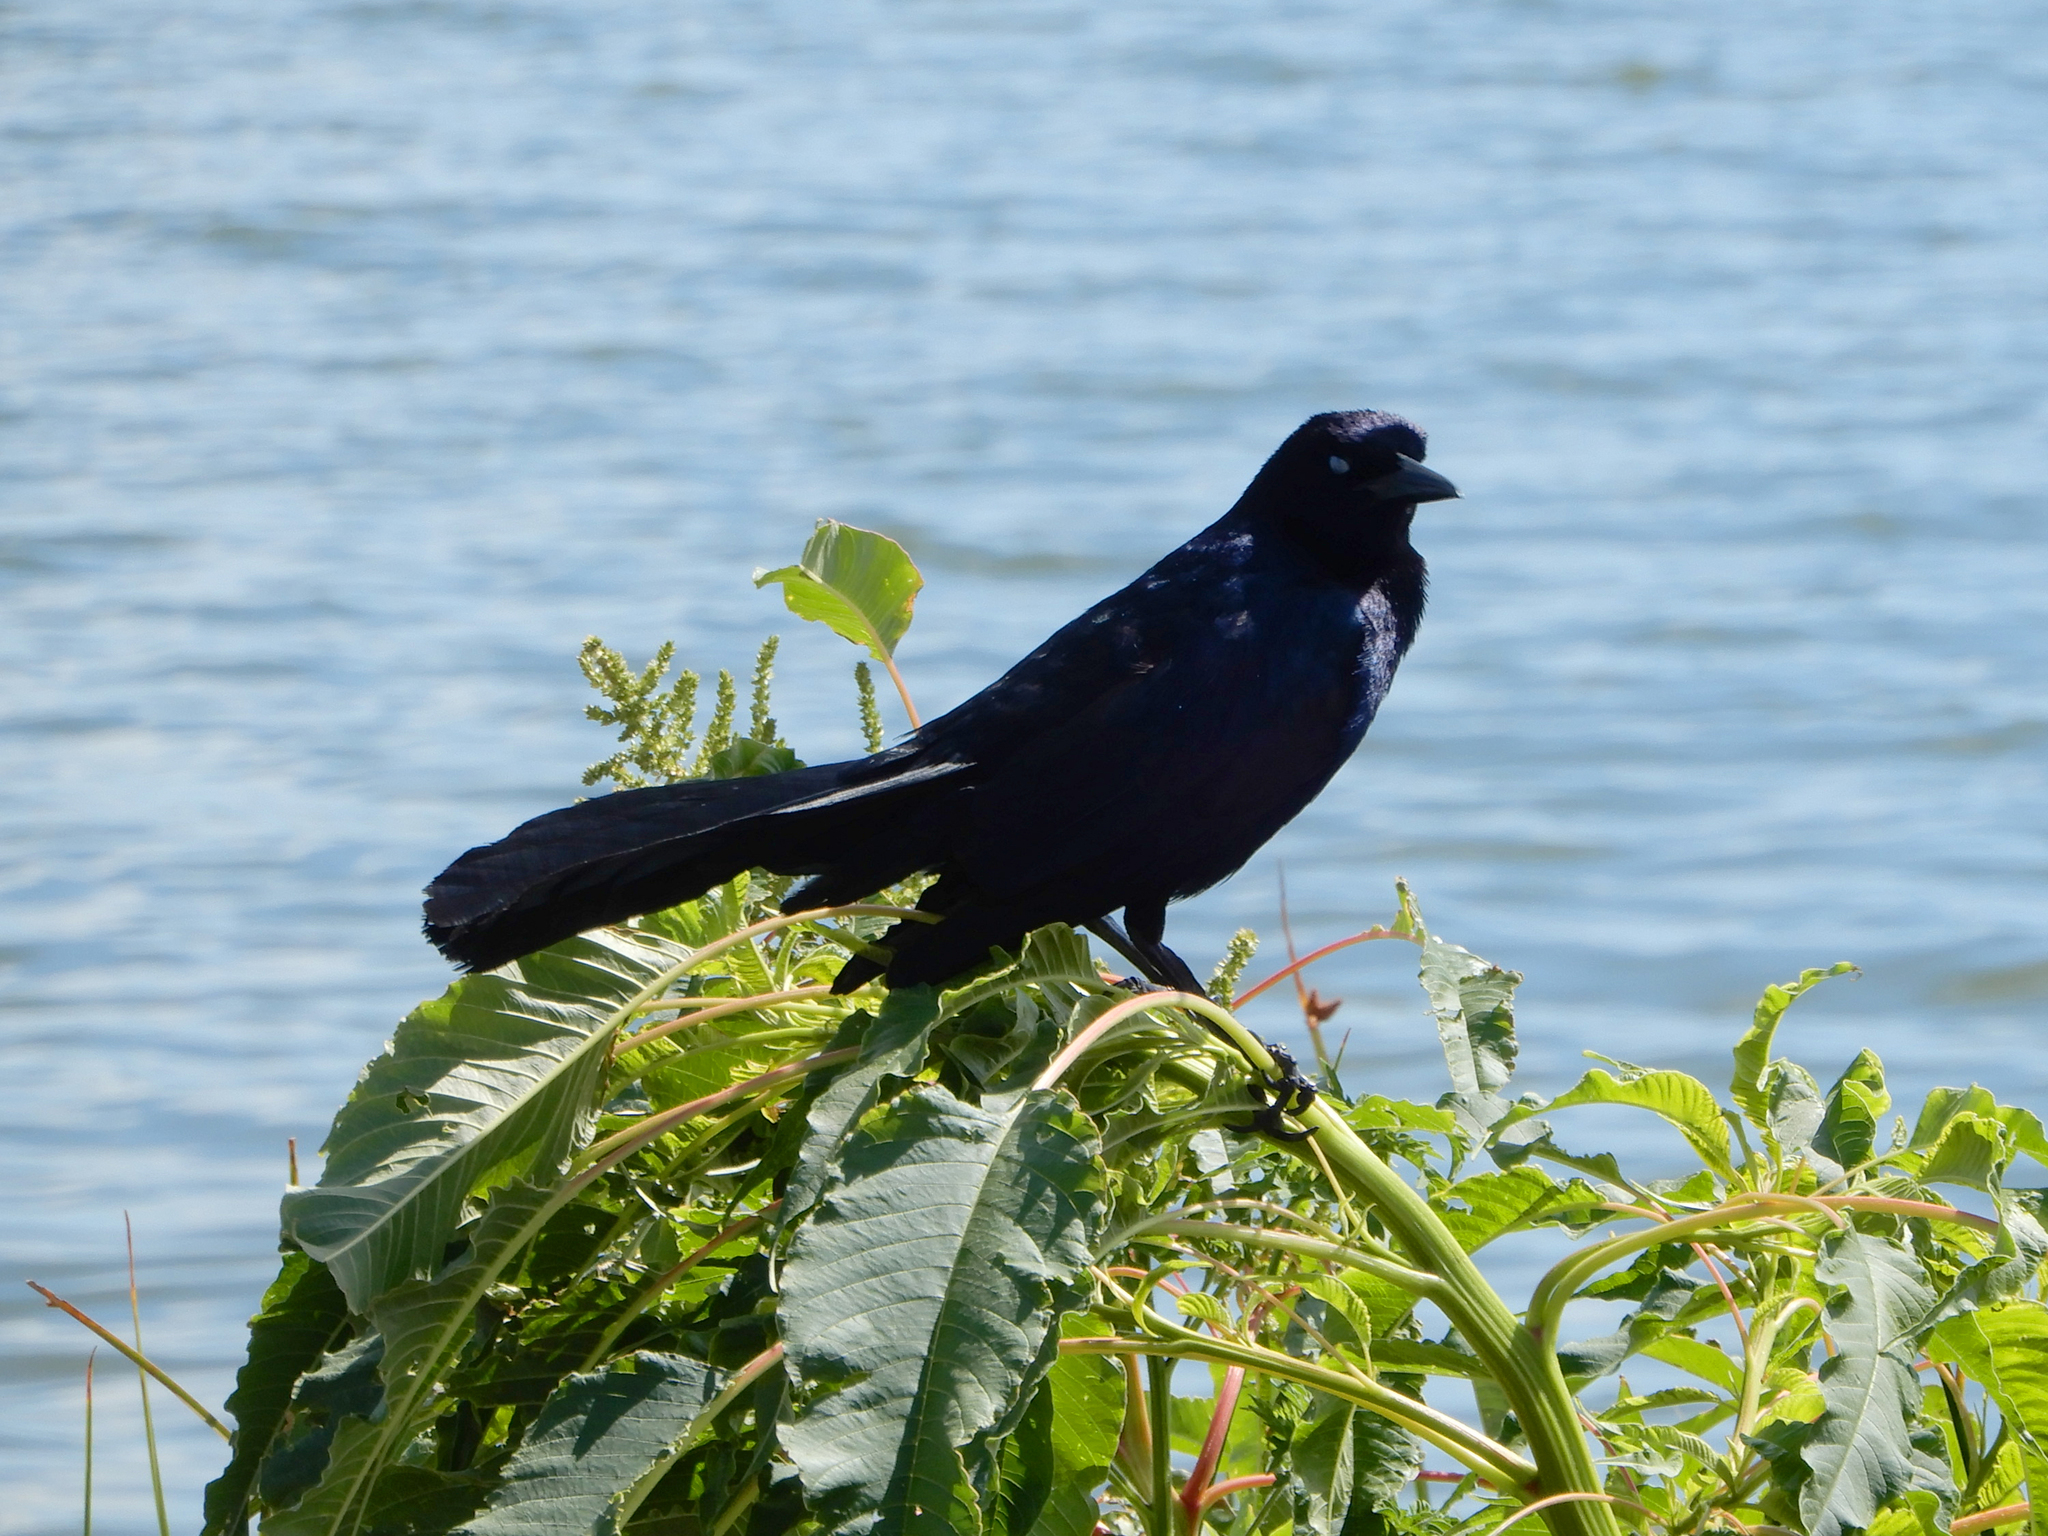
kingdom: Animalia
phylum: Chordata
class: Aves
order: Passeriformes
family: Icteridae
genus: Quiscalus
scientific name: Quiscalus major
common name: Boat-tailed grackle
